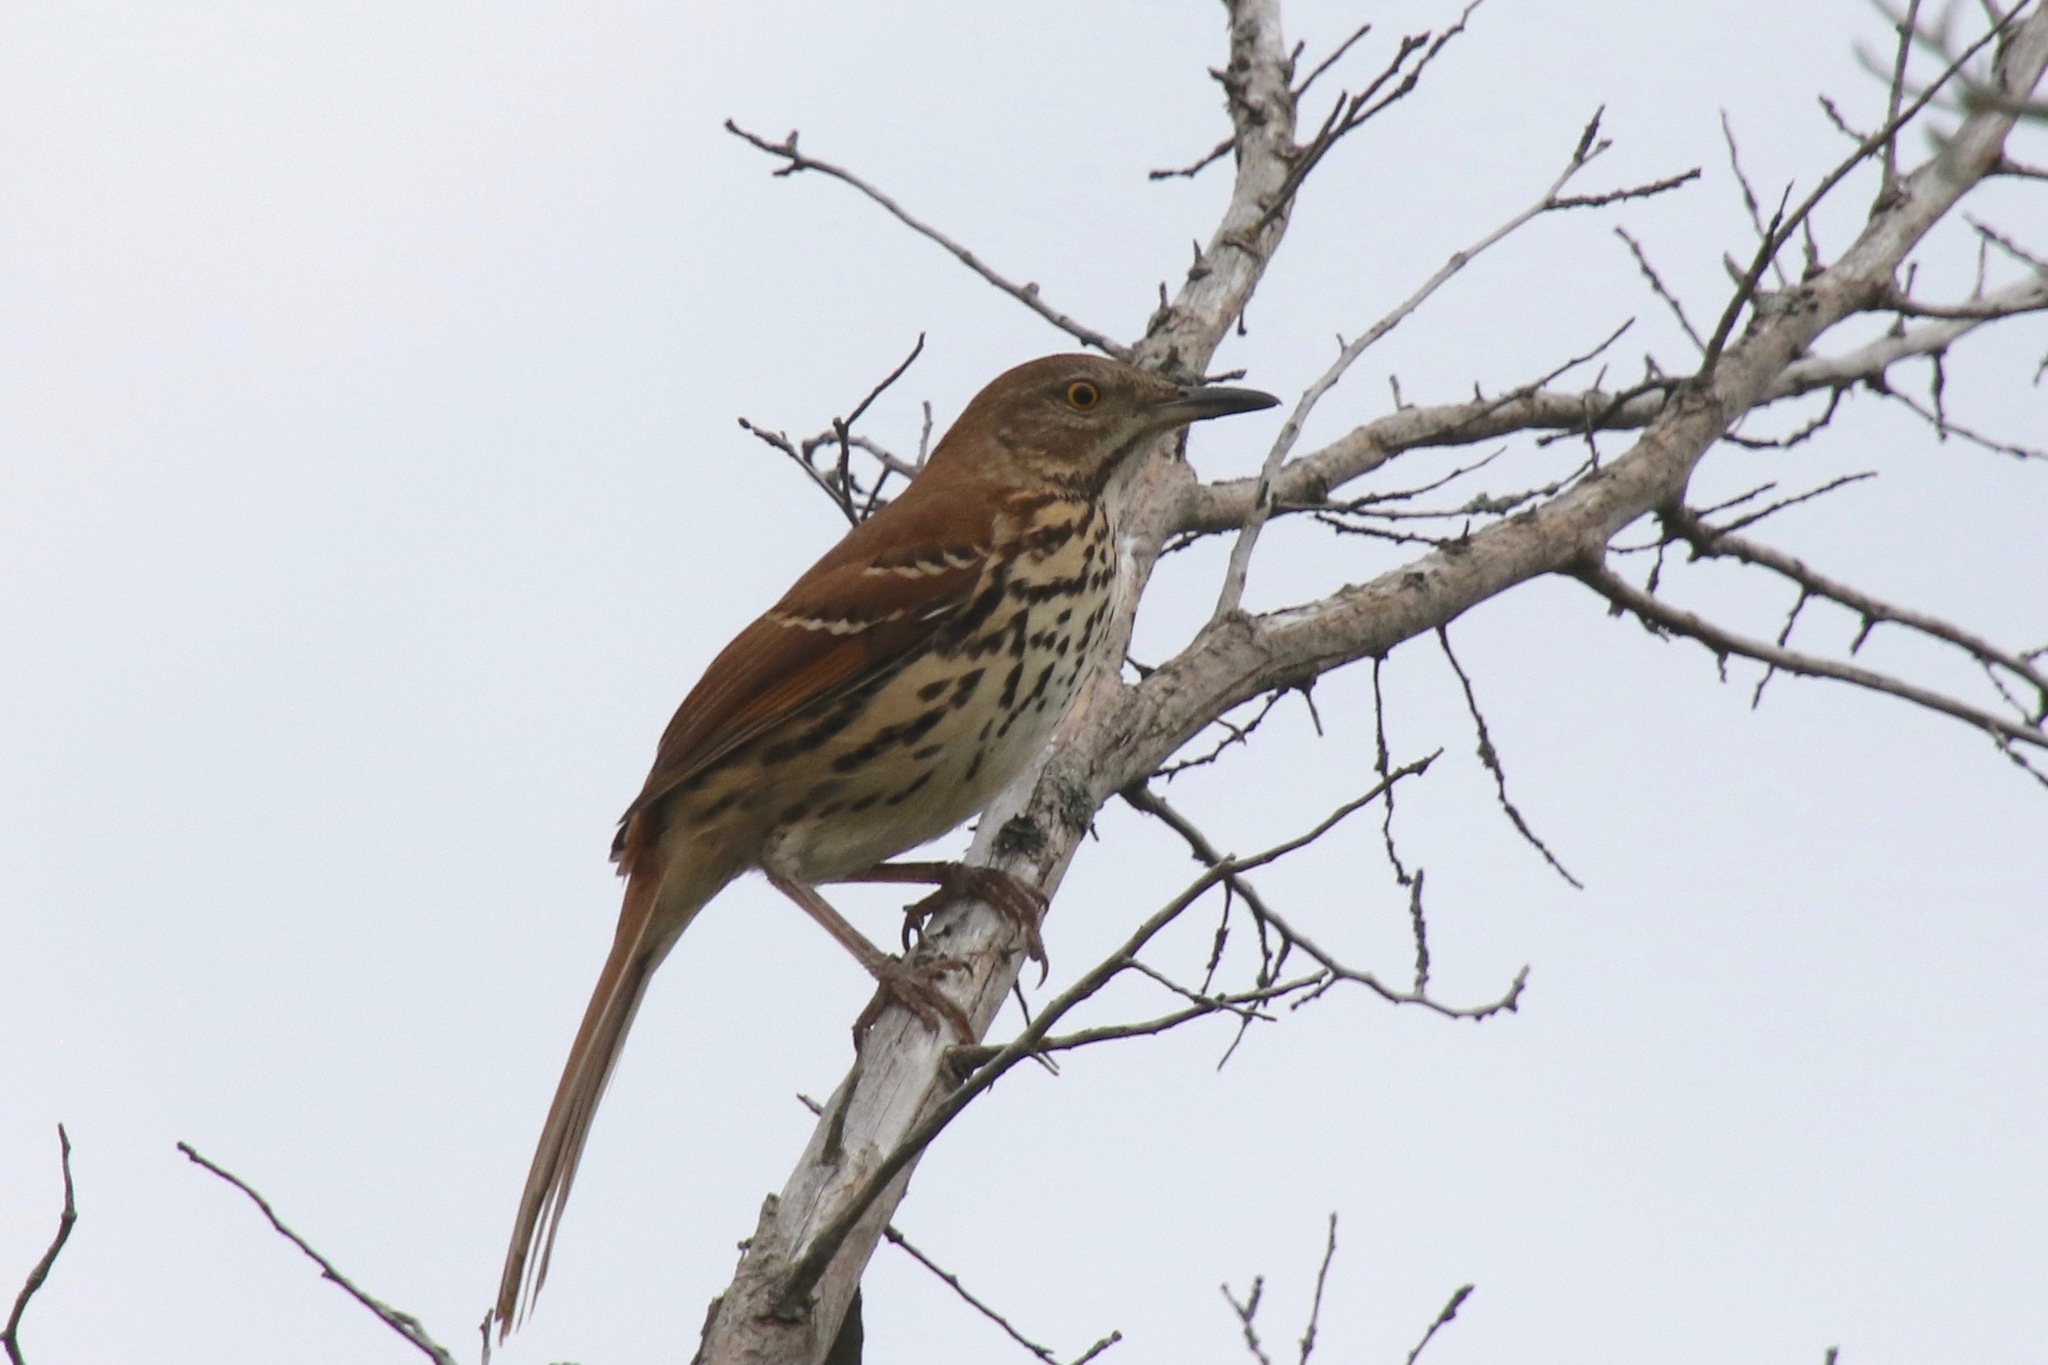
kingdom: Animalia
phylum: Chordata
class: Aves
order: Passeriformes
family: Mimidae
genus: Toxostoma
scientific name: Toxostoma rufum
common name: Brown thrasher
